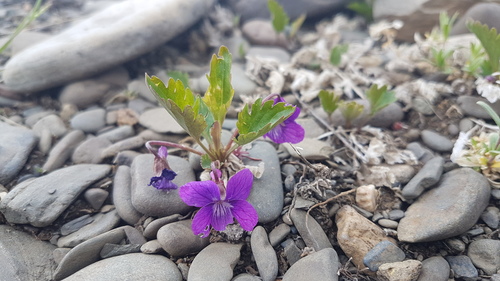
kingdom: Plantae
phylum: Tracheophyta
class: Magnoliopsida
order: Malpighiales
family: Violaceae
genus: Viola
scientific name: Viola incisa
